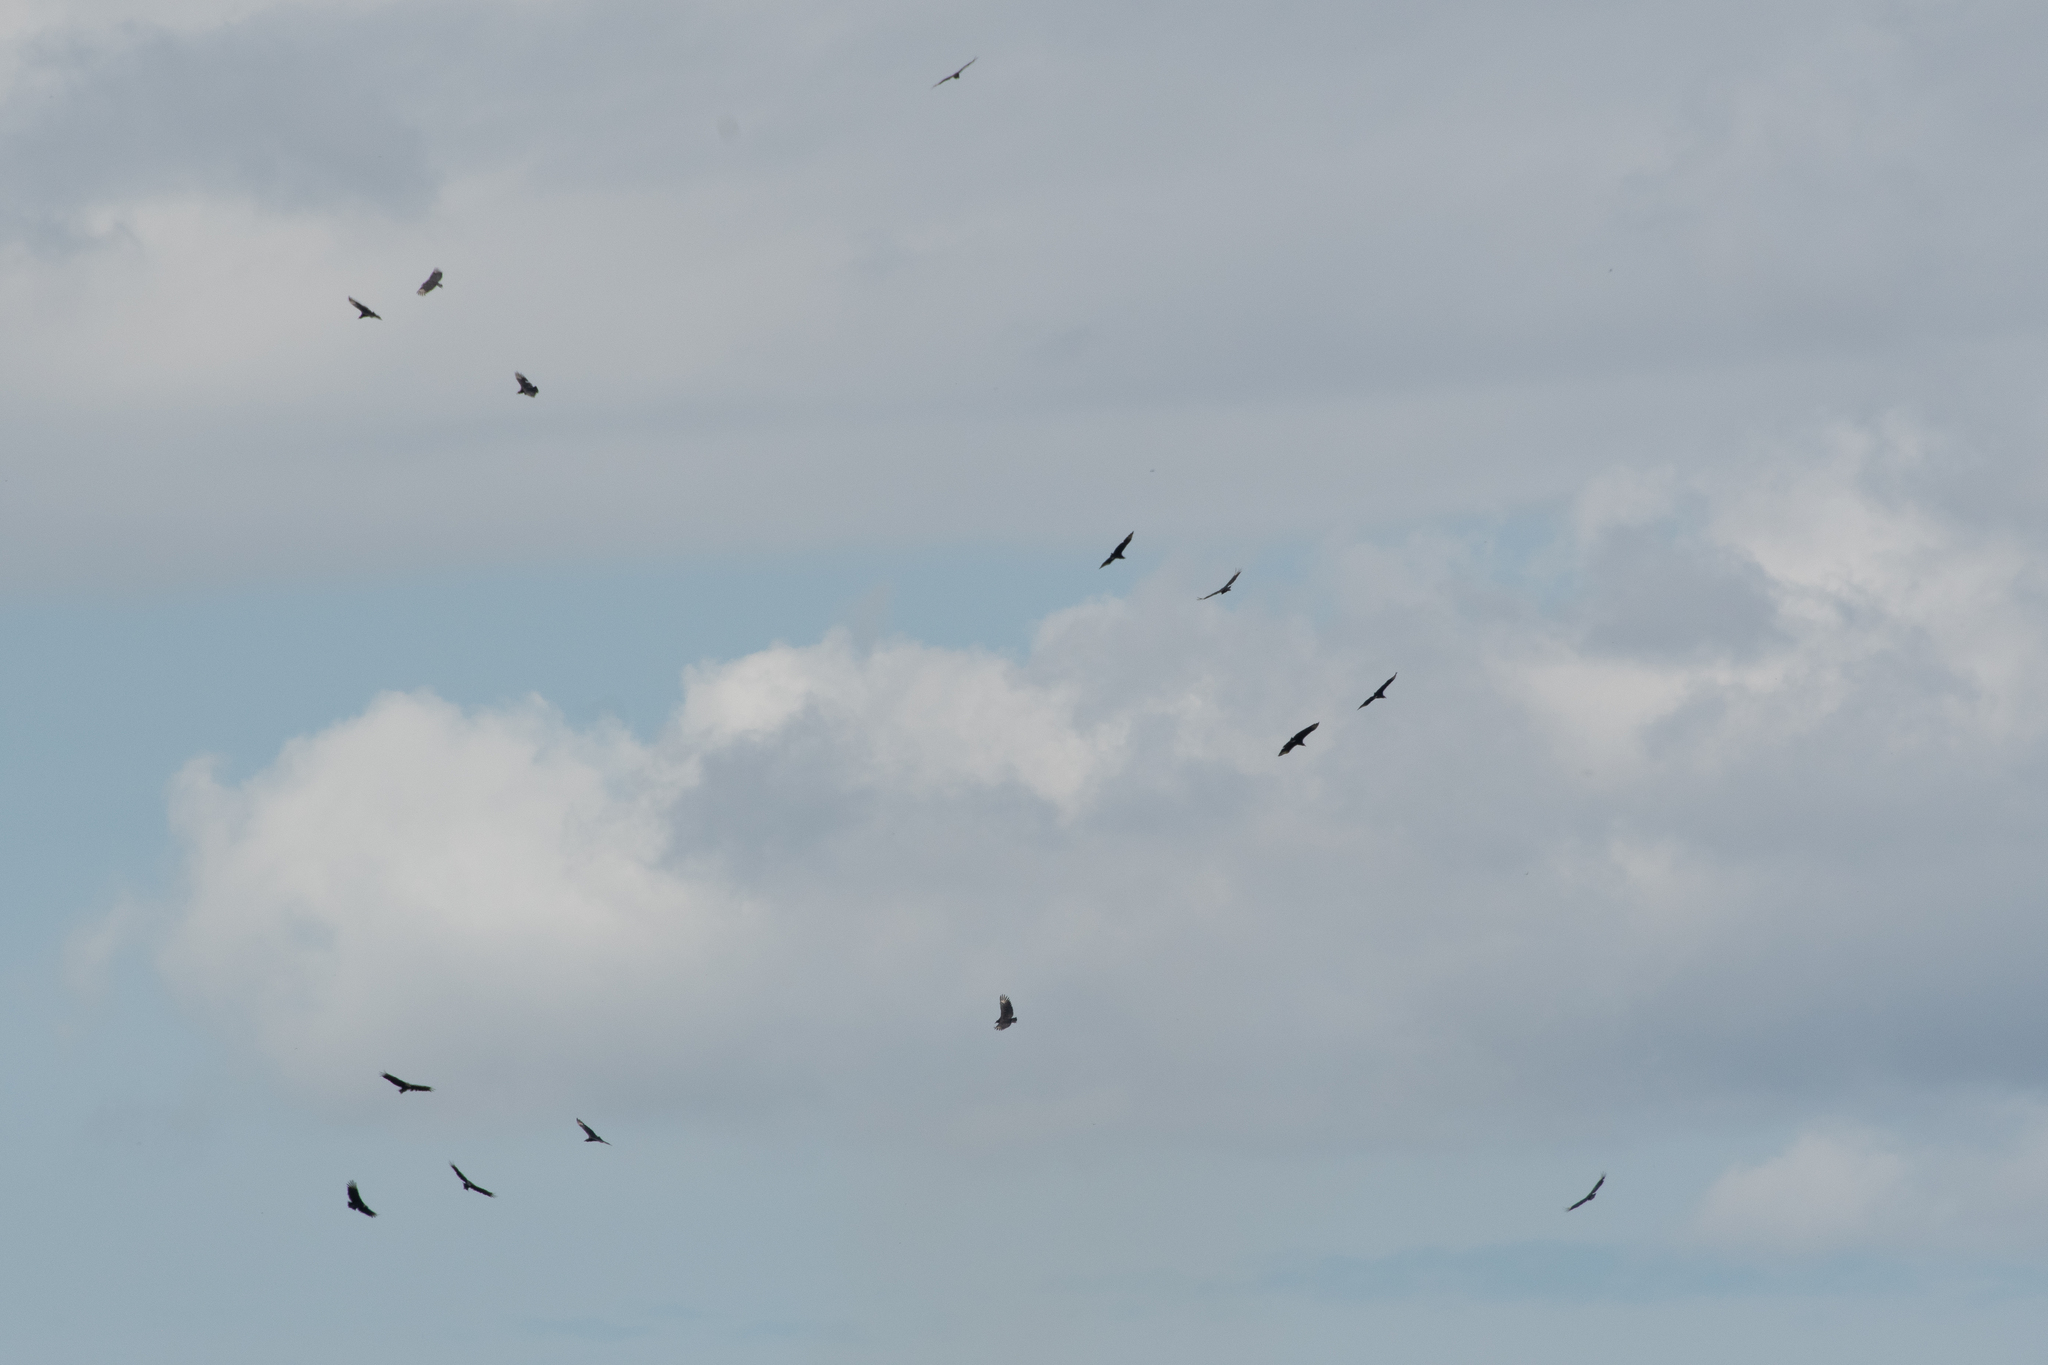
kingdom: Animalia
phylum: Chordata
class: Aves
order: Accipitriformes
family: Cathartidae
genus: Coragyps
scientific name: Coragyps atratus
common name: Black vulture
